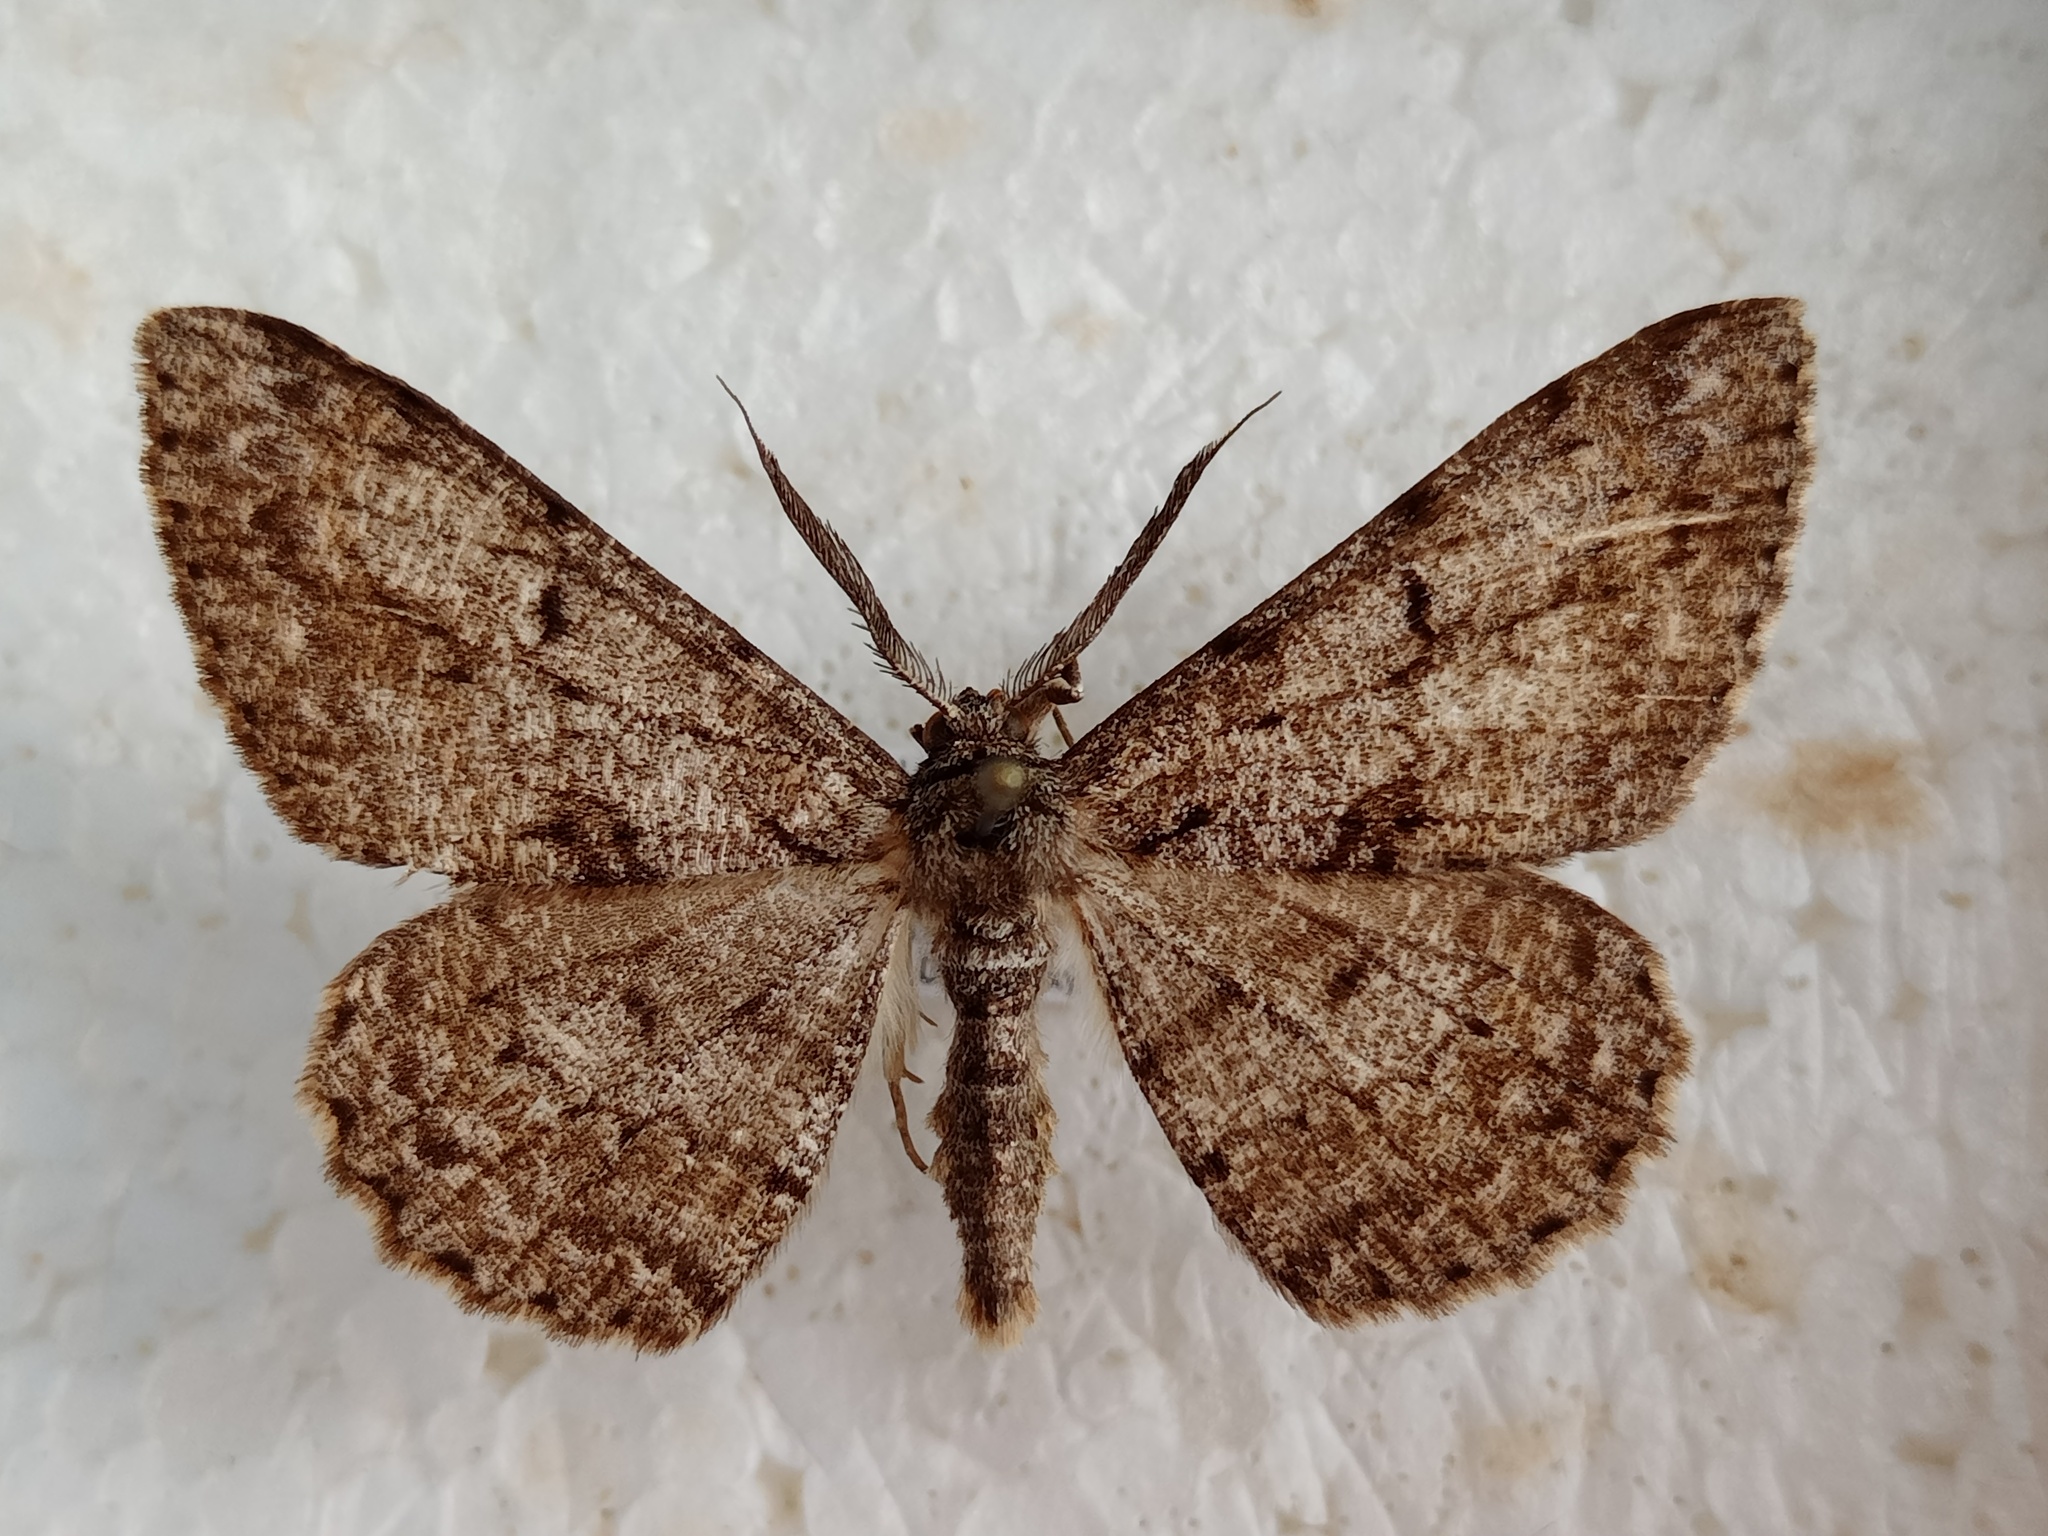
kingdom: Animalia
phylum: Arthropoda
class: Insecta
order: Lepidoptera
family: Geometridae
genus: Hypomecis
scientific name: Hypomecis roboraria
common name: Great oak beauty
